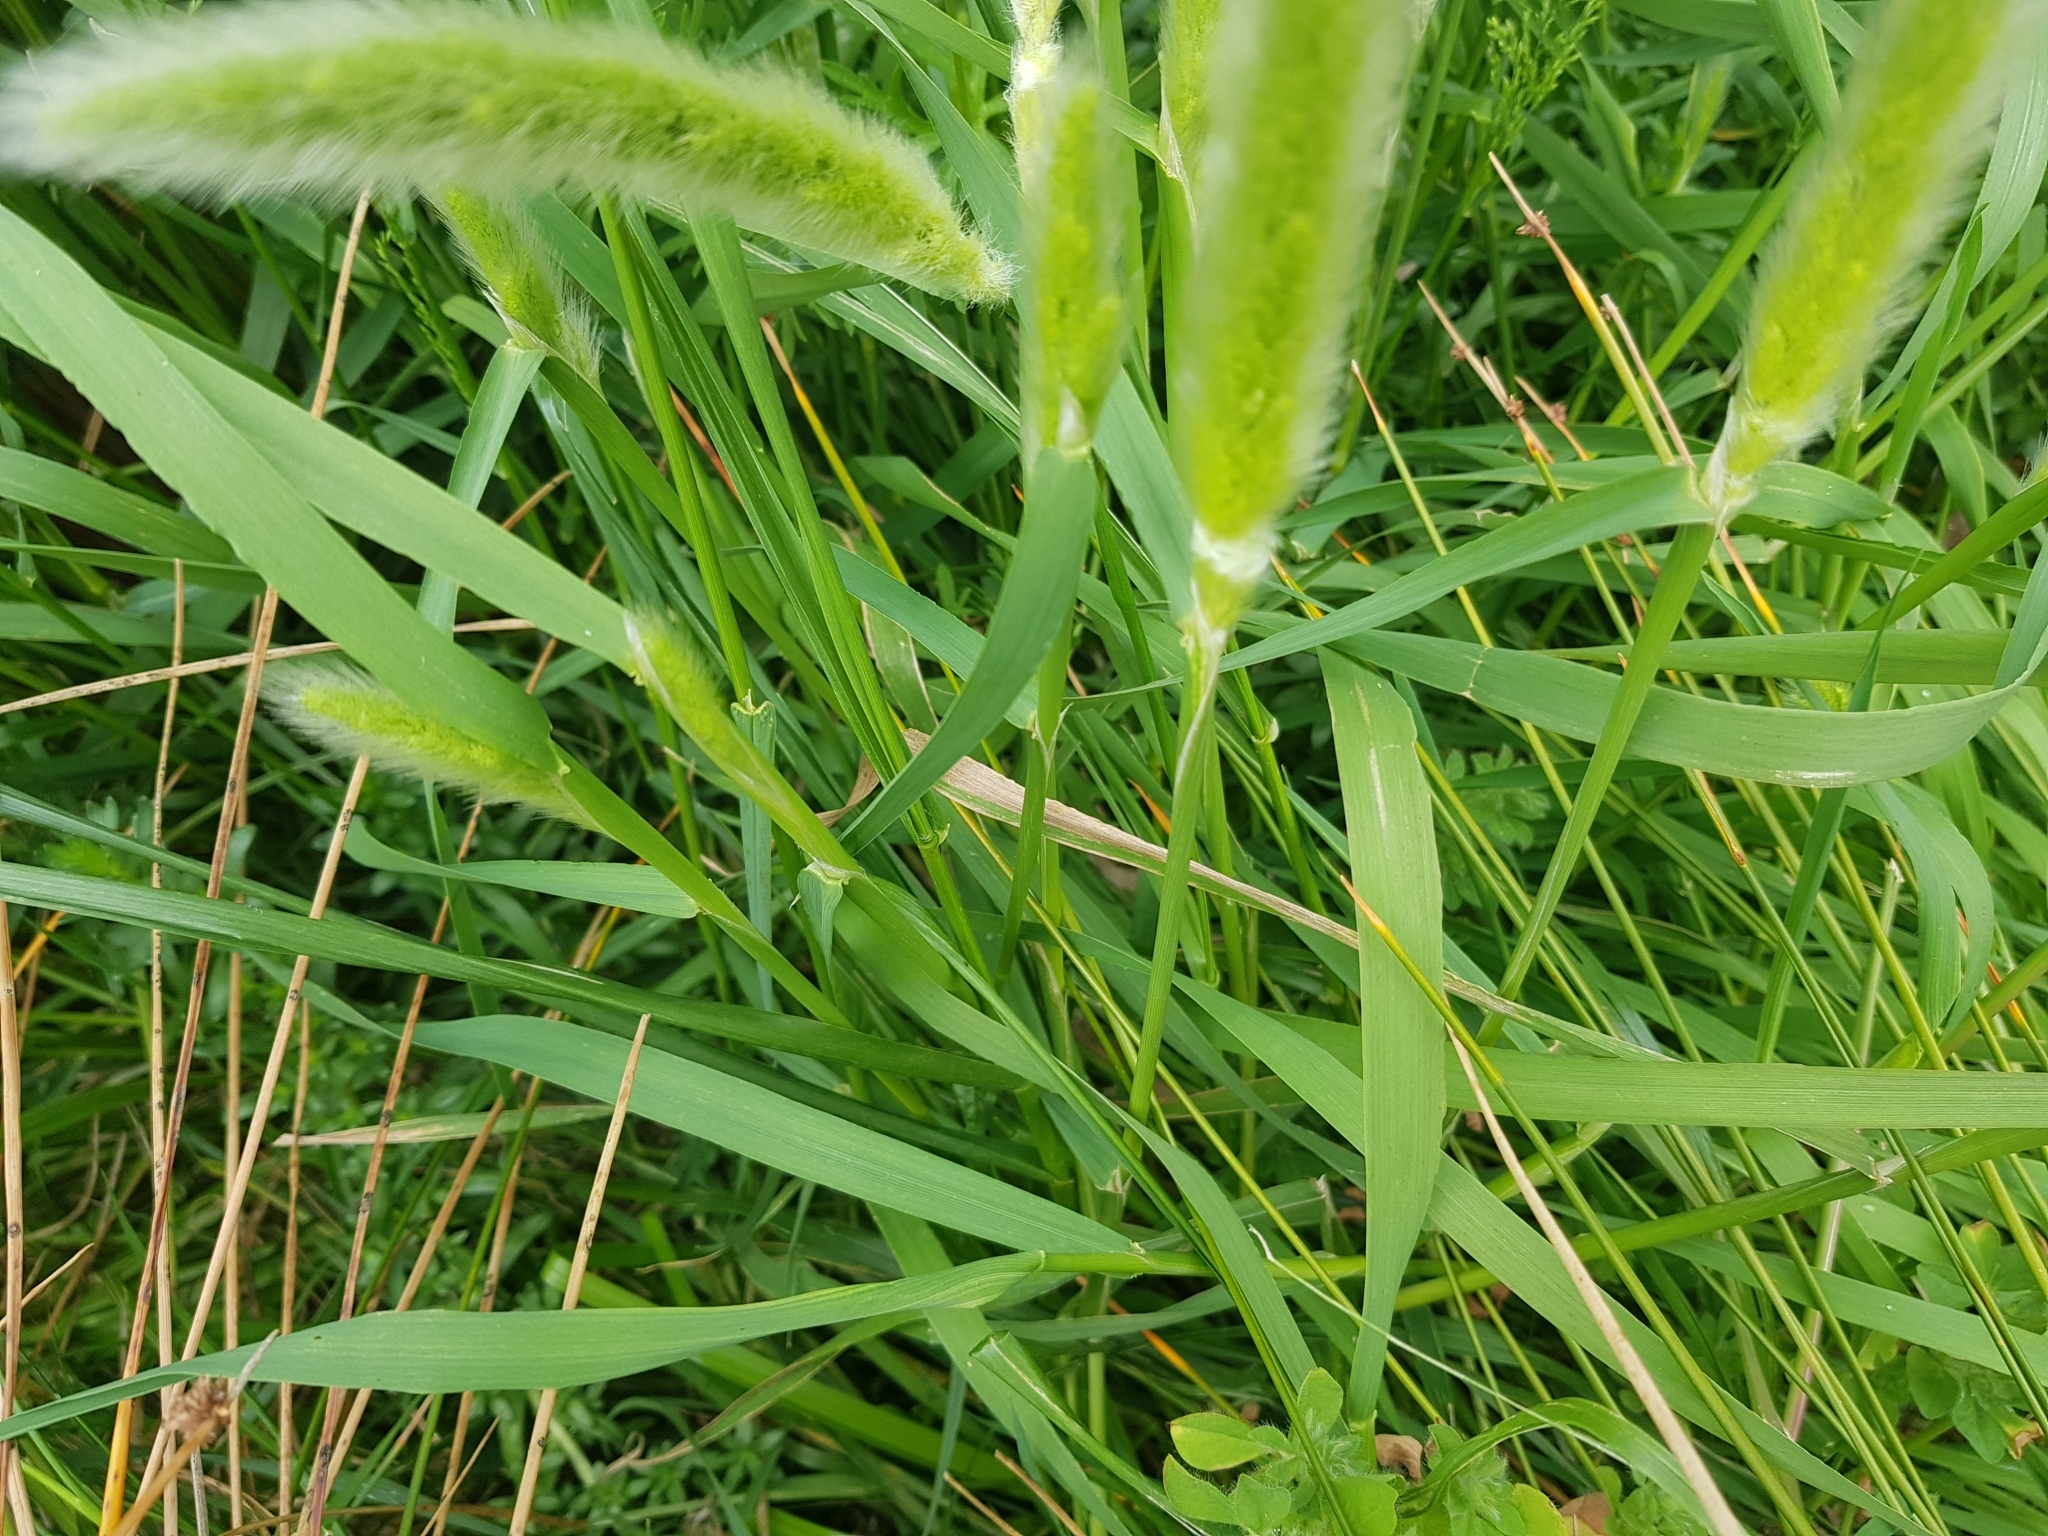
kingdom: Plantae
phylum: Tracheophyta
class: Liliopsida
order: Poales
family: Poaceae
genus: Polypogon
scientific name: Polypogon monspeliensis
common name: Annual rabbitsfoot grass
